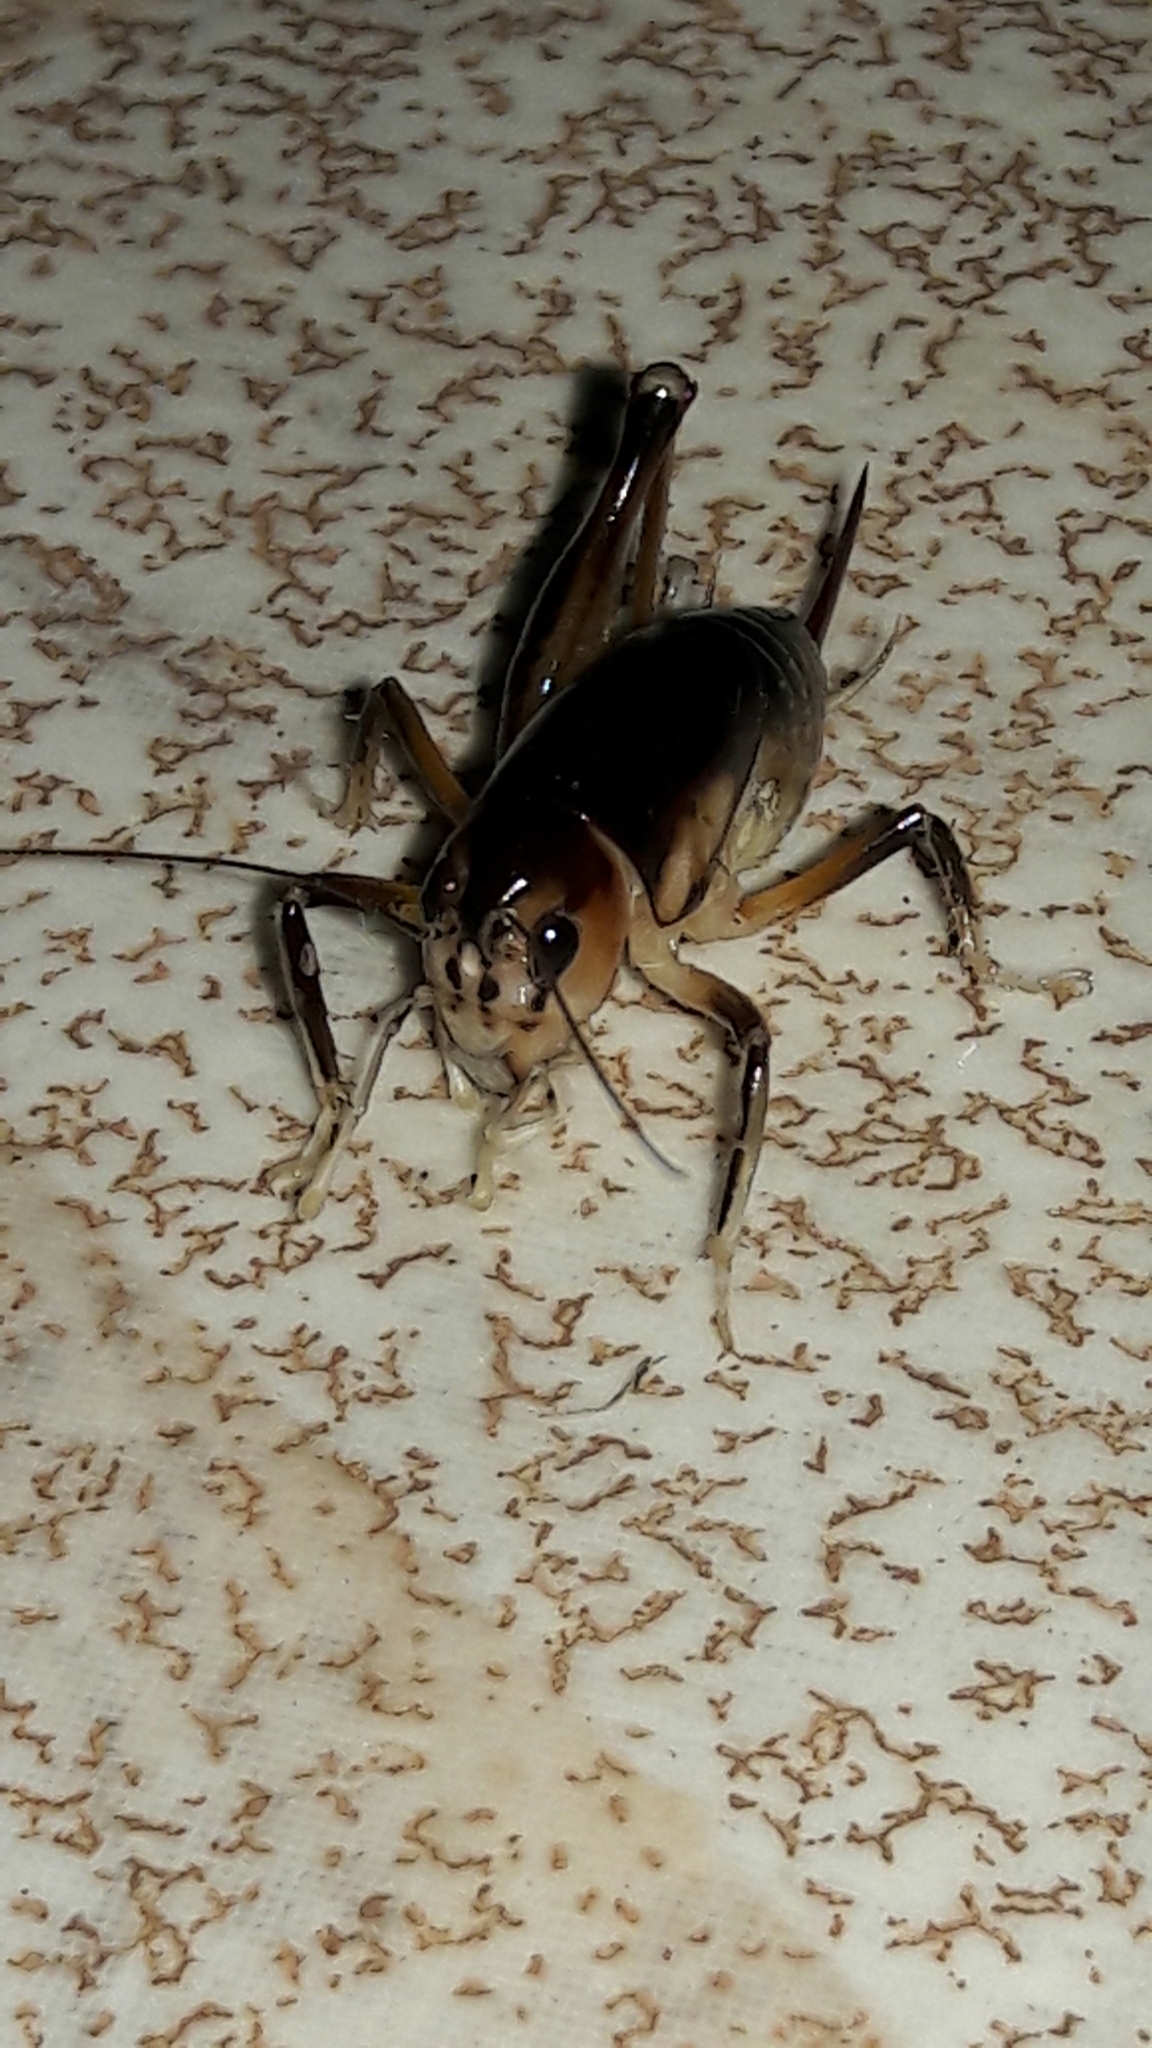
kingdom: Animalia
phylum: Arthropoda
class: Insecta
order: Orthoptera
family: Anostostomatidae
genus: Apotetamenus
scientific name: Apotetamenus clipeatus
